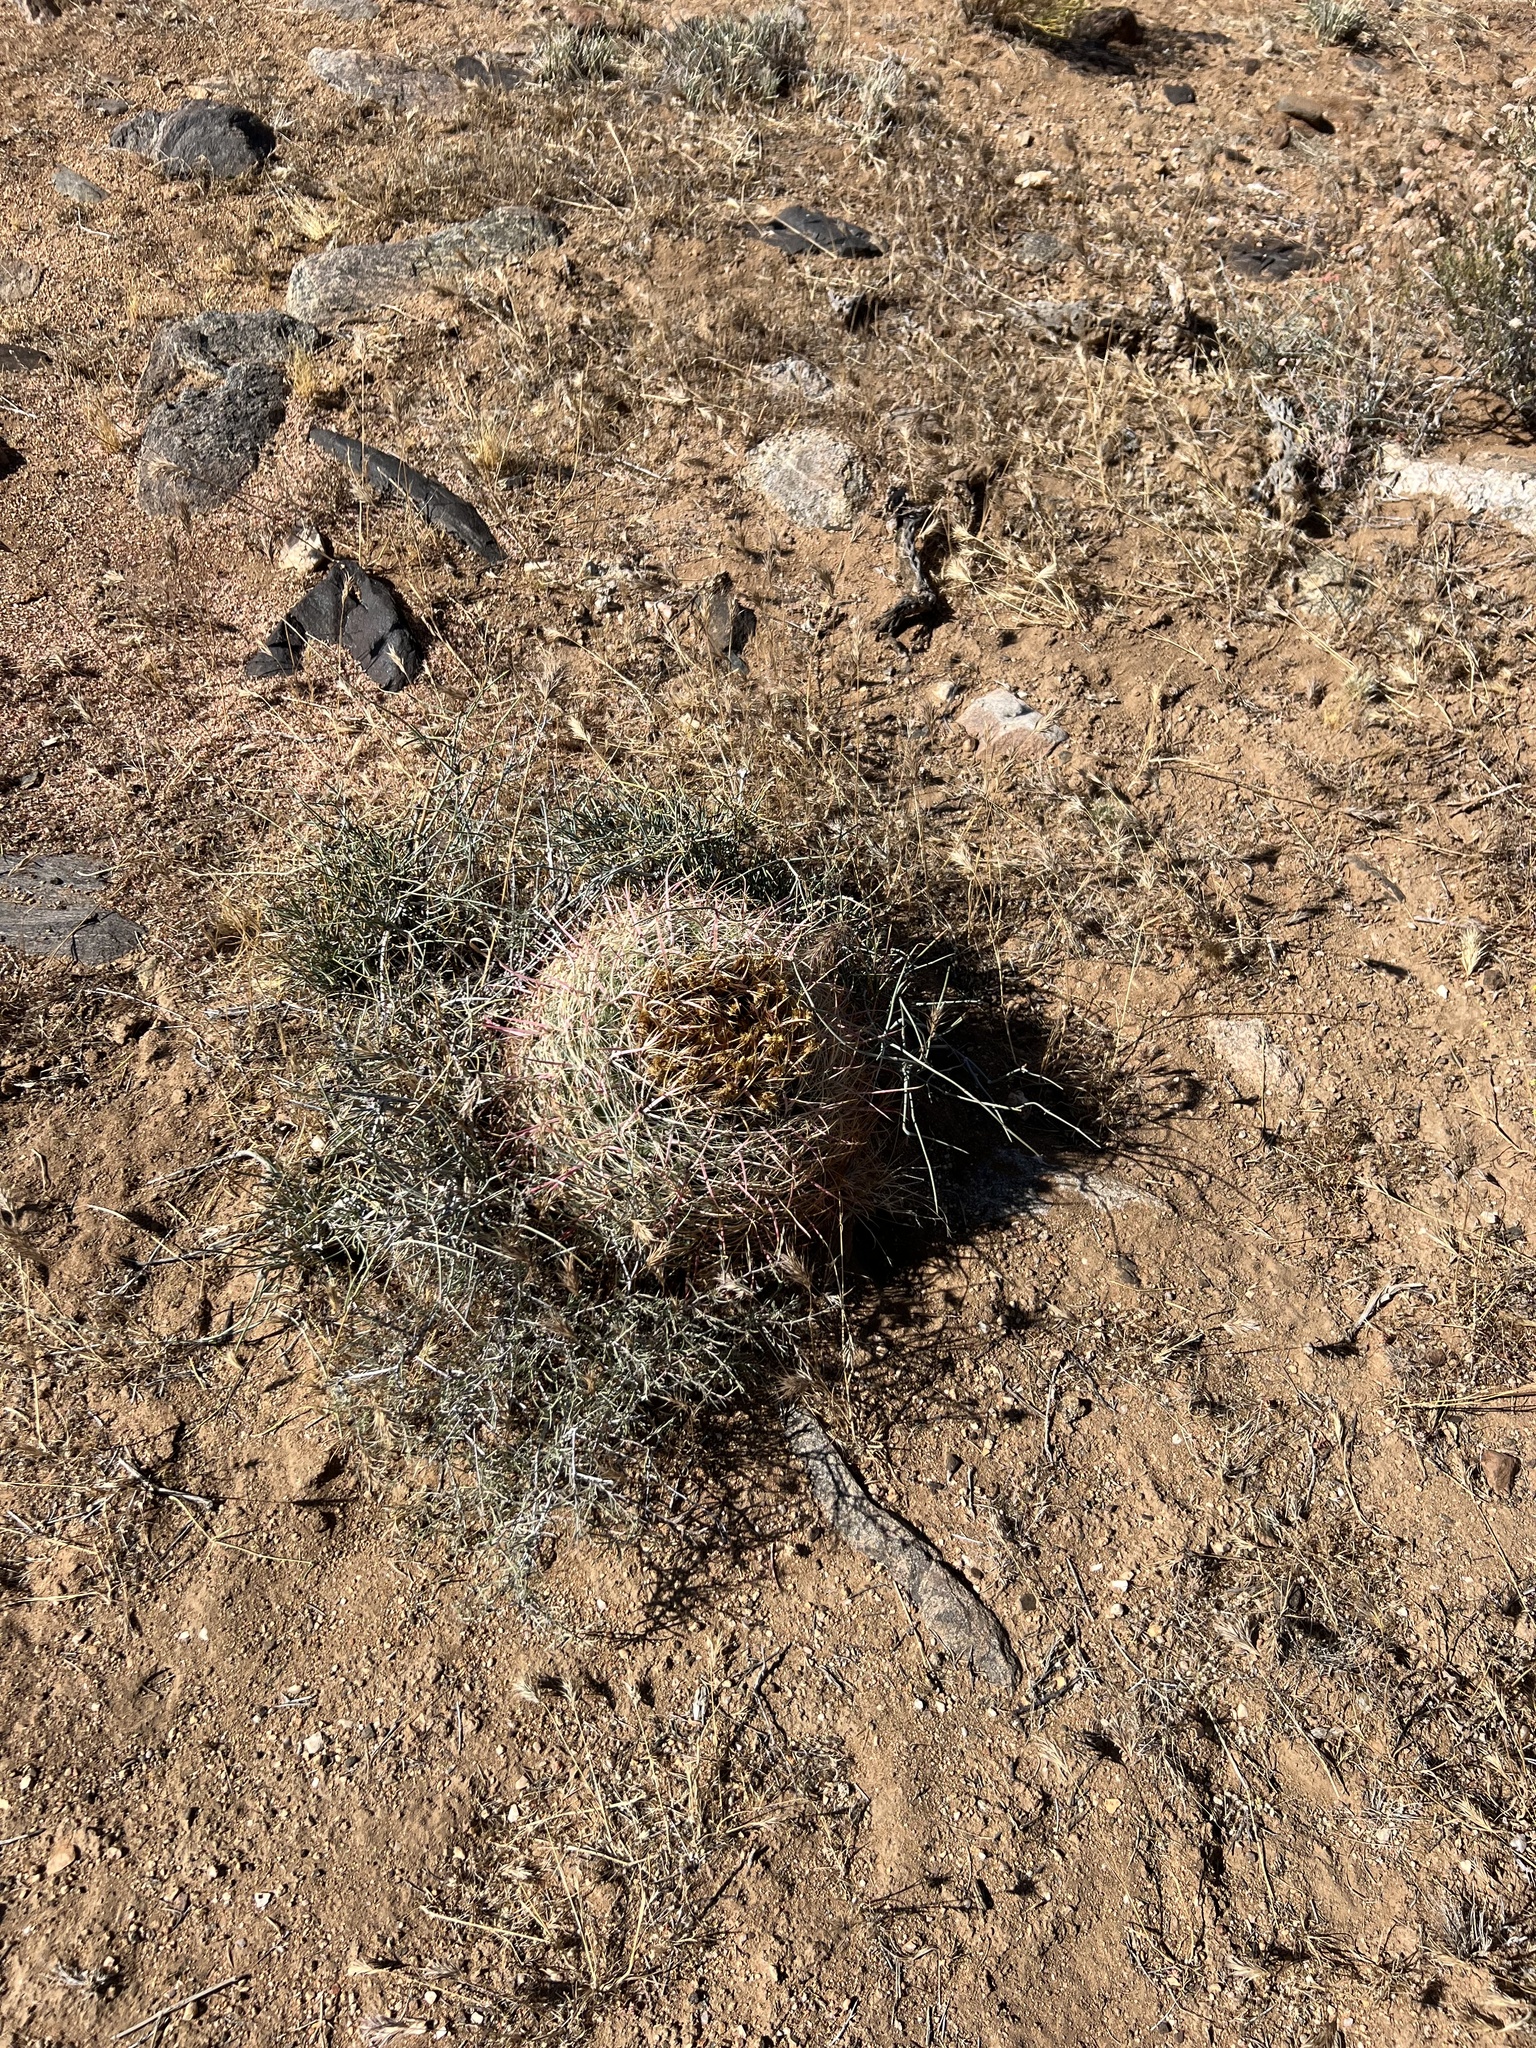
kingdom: Plantae
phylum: Tracheophyta
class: Magnoliopsida
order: Caryophyllales
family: Cactaceae
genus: Ferocactus
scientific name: Ferocactus cylindraceus
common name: California barrel cactus
